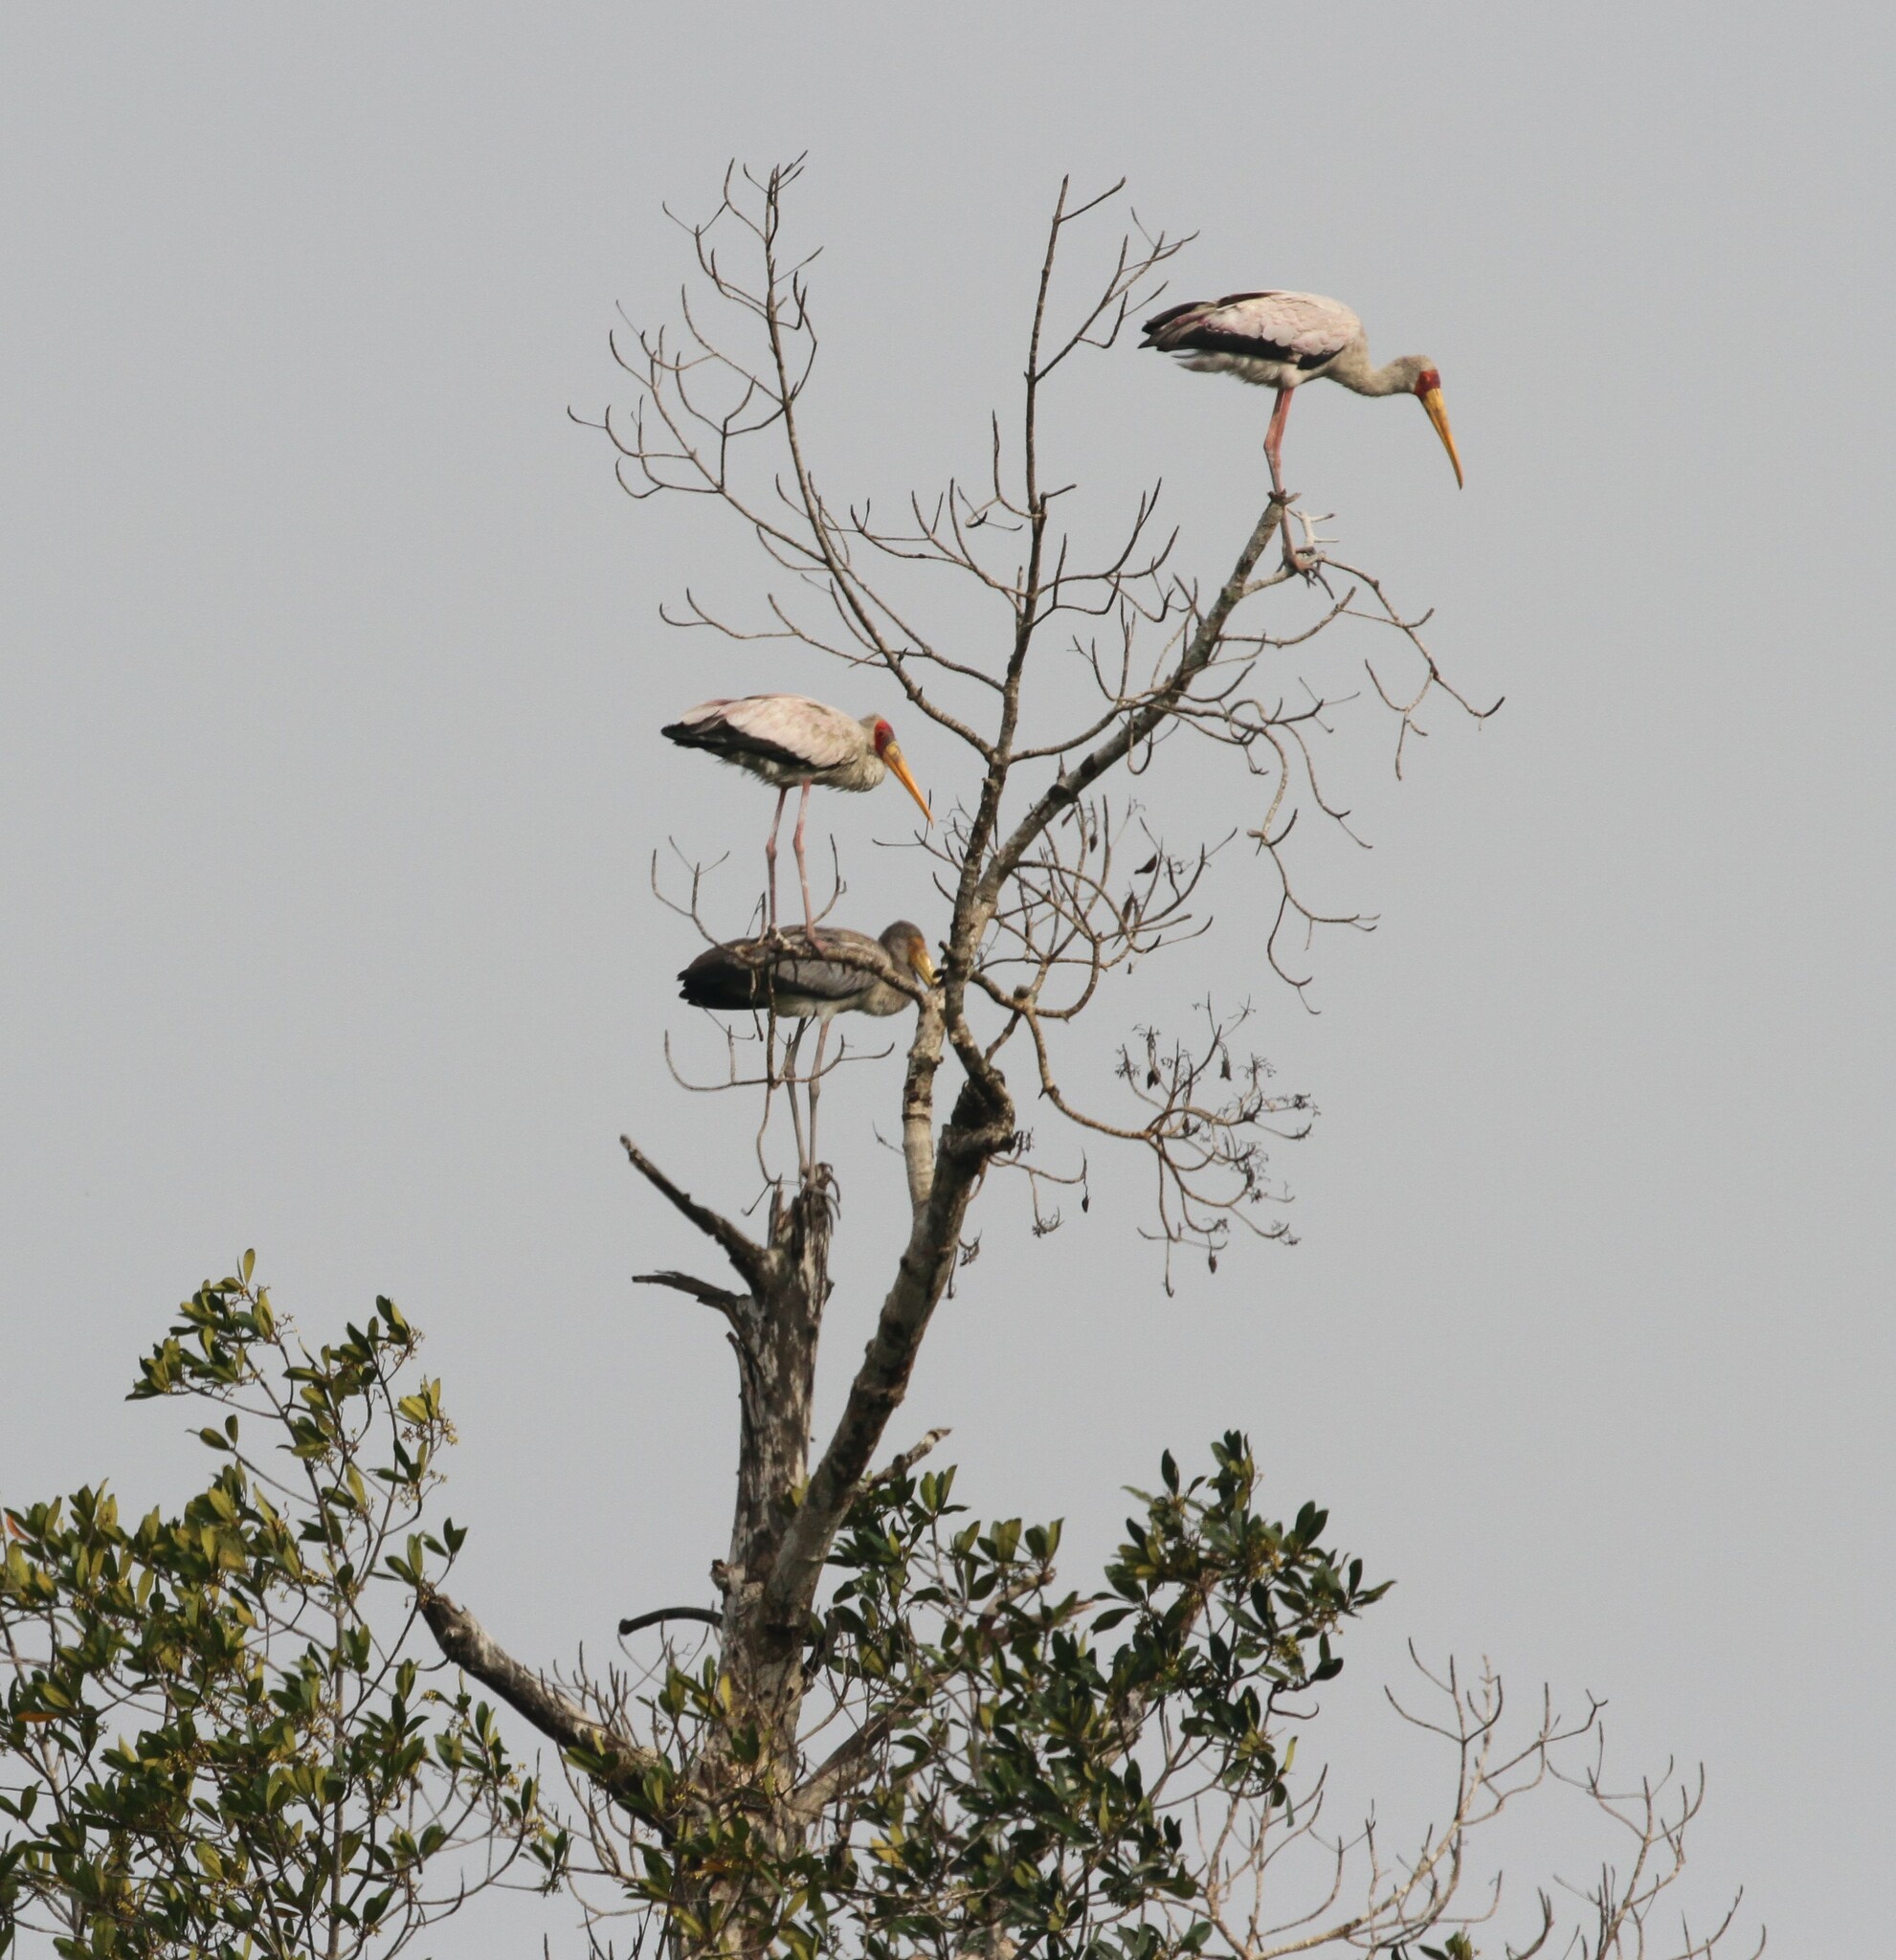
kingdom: Animalia
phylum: Chordata
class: Aves
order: Ciconiiformes
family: Ciconiidae
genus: Mycteria
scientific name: Mycteria ibis
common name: Yellow-billed stork
